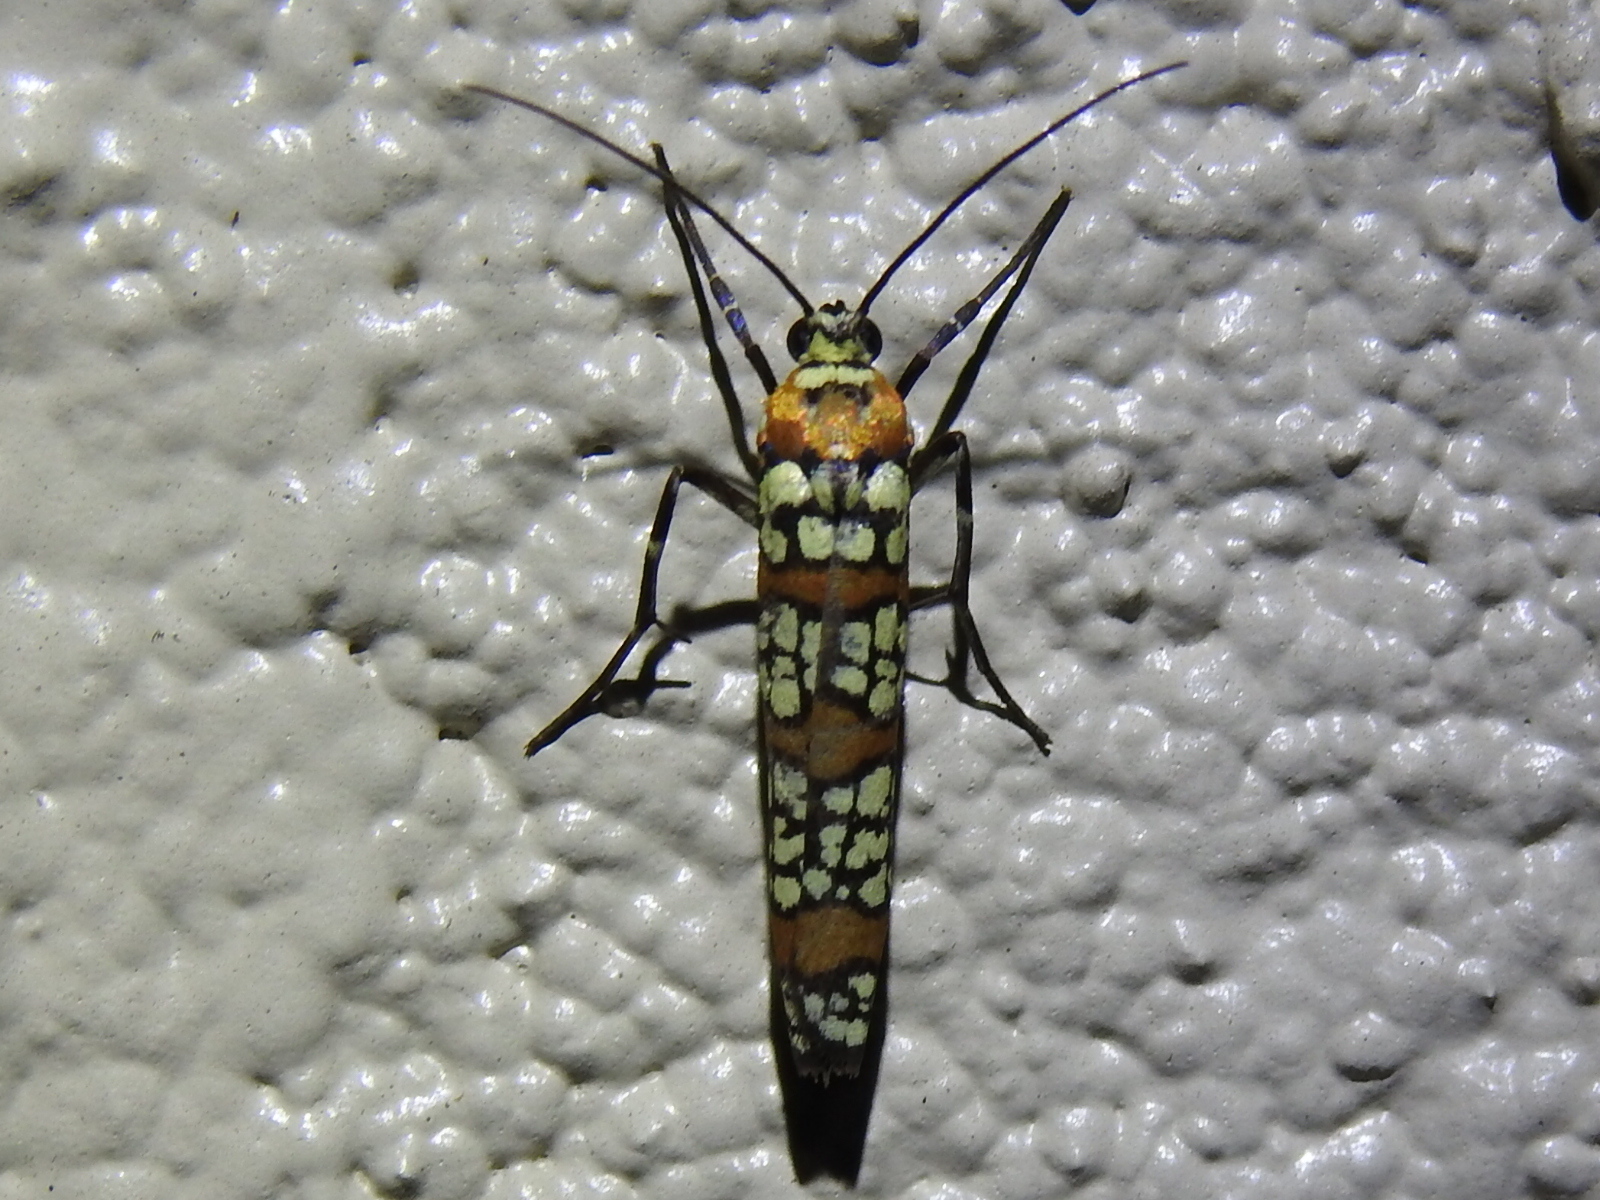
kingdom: Animalia
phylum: Arthropoda
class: Insecta
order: Lepidoptera
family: Attevidae
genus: Atteva
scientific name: Atteva punctella
